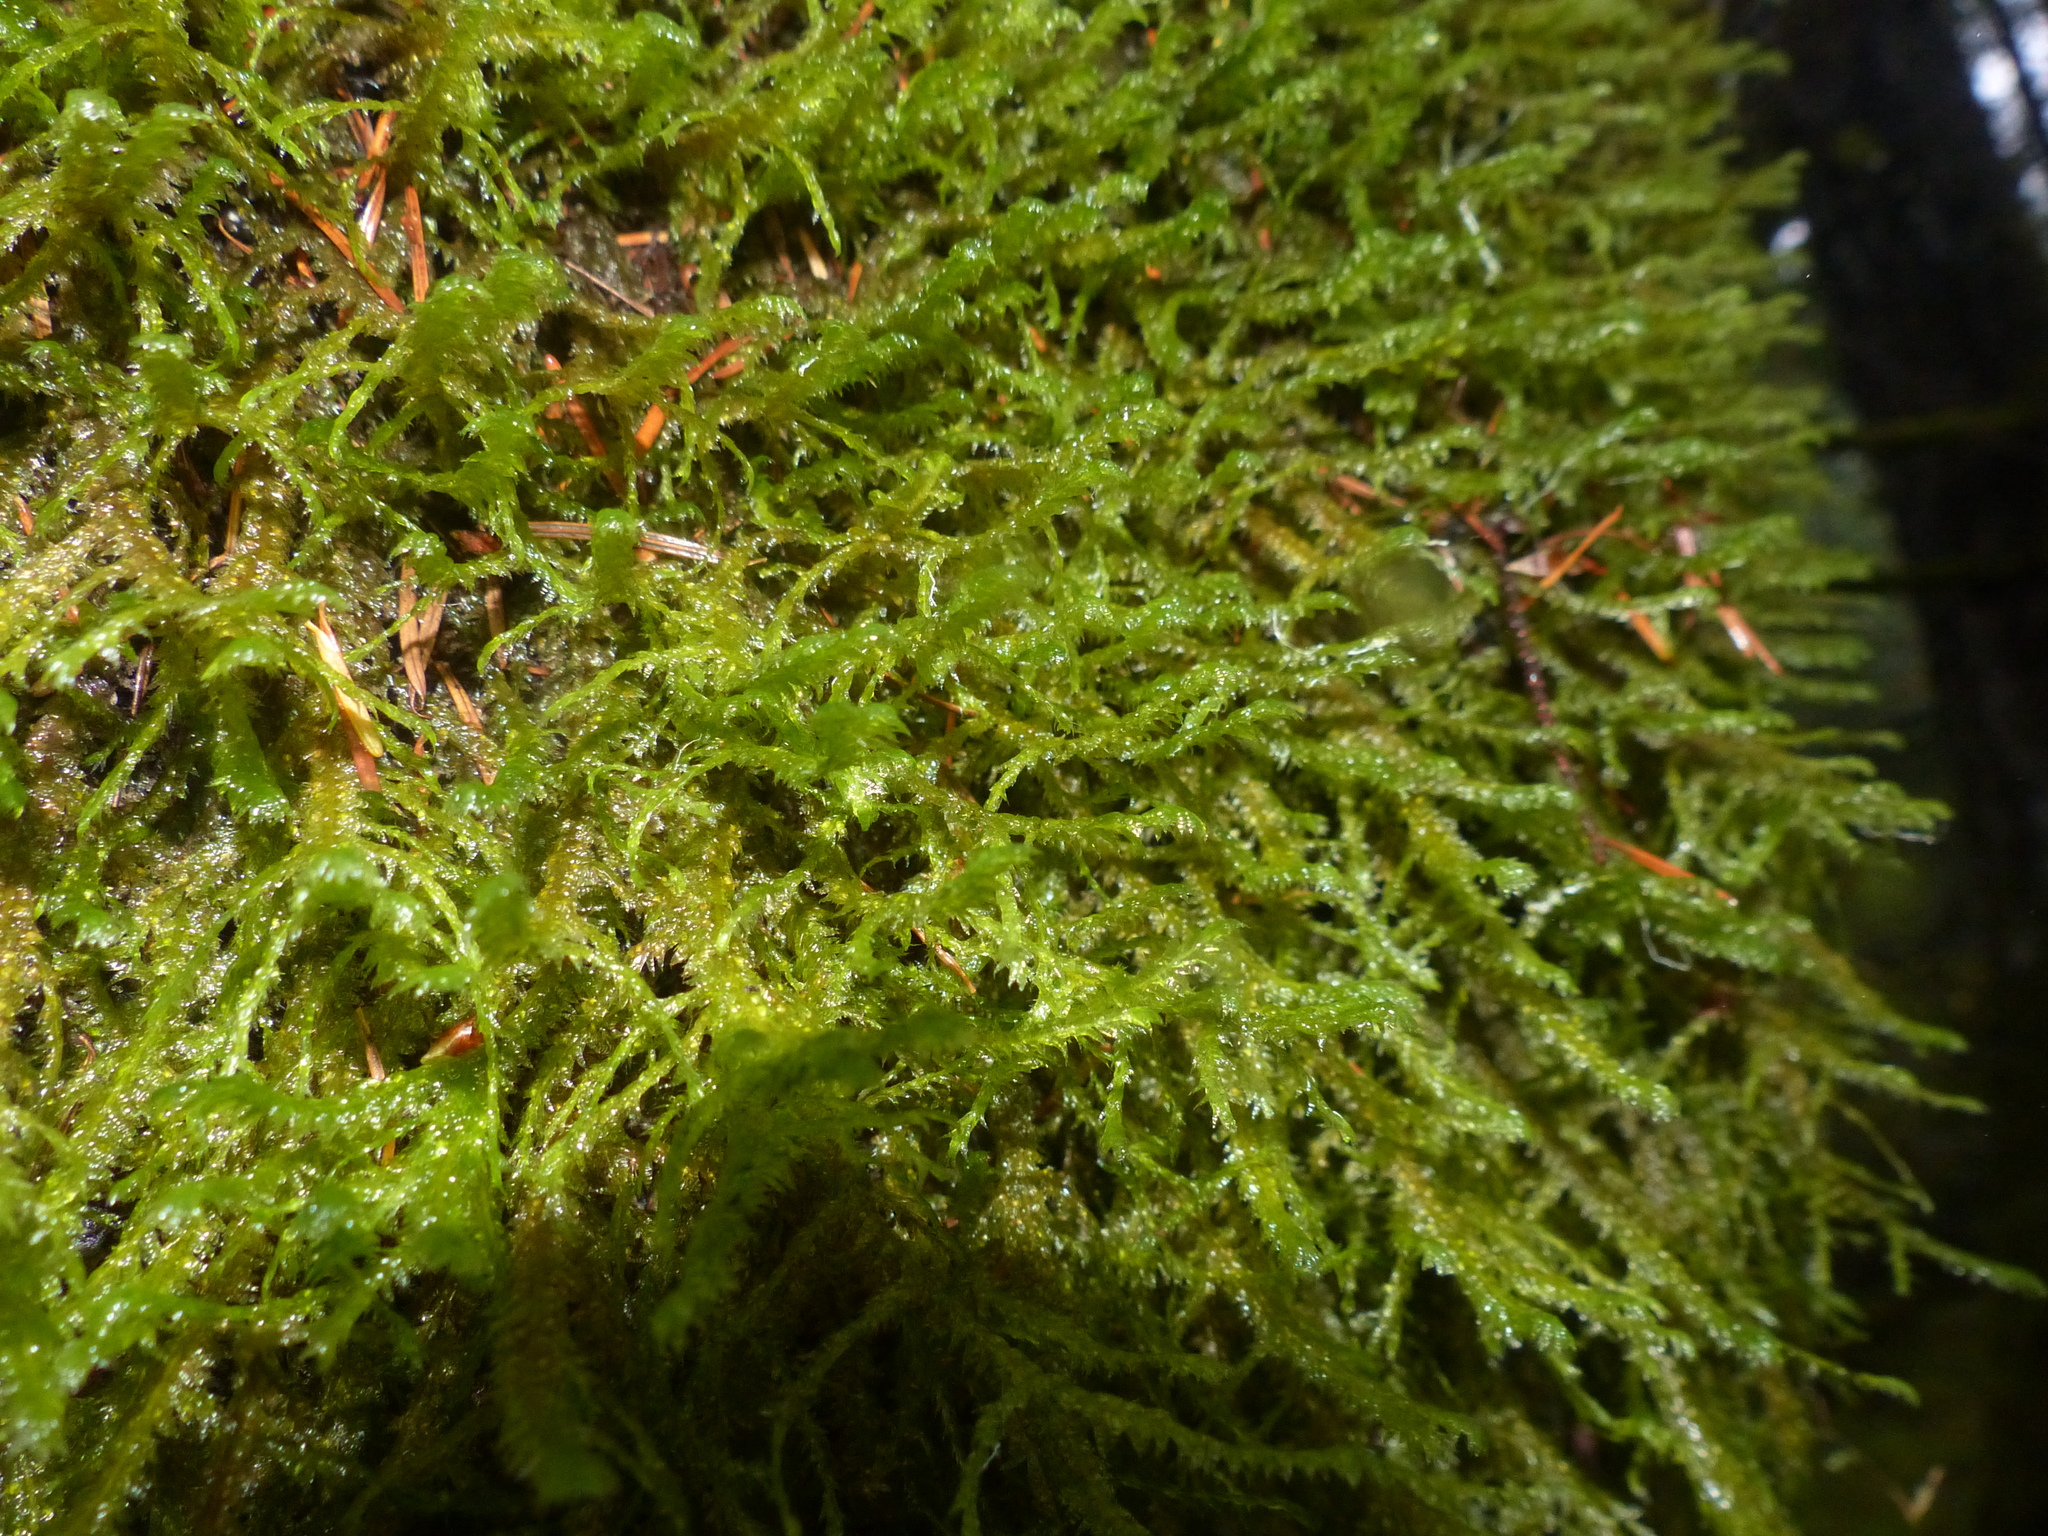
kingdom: Plantae
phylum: Bryophyta
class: Bryopsida
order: Hypnales
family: Neckeraceae
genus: Neckera
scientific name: Neckera douglasii
